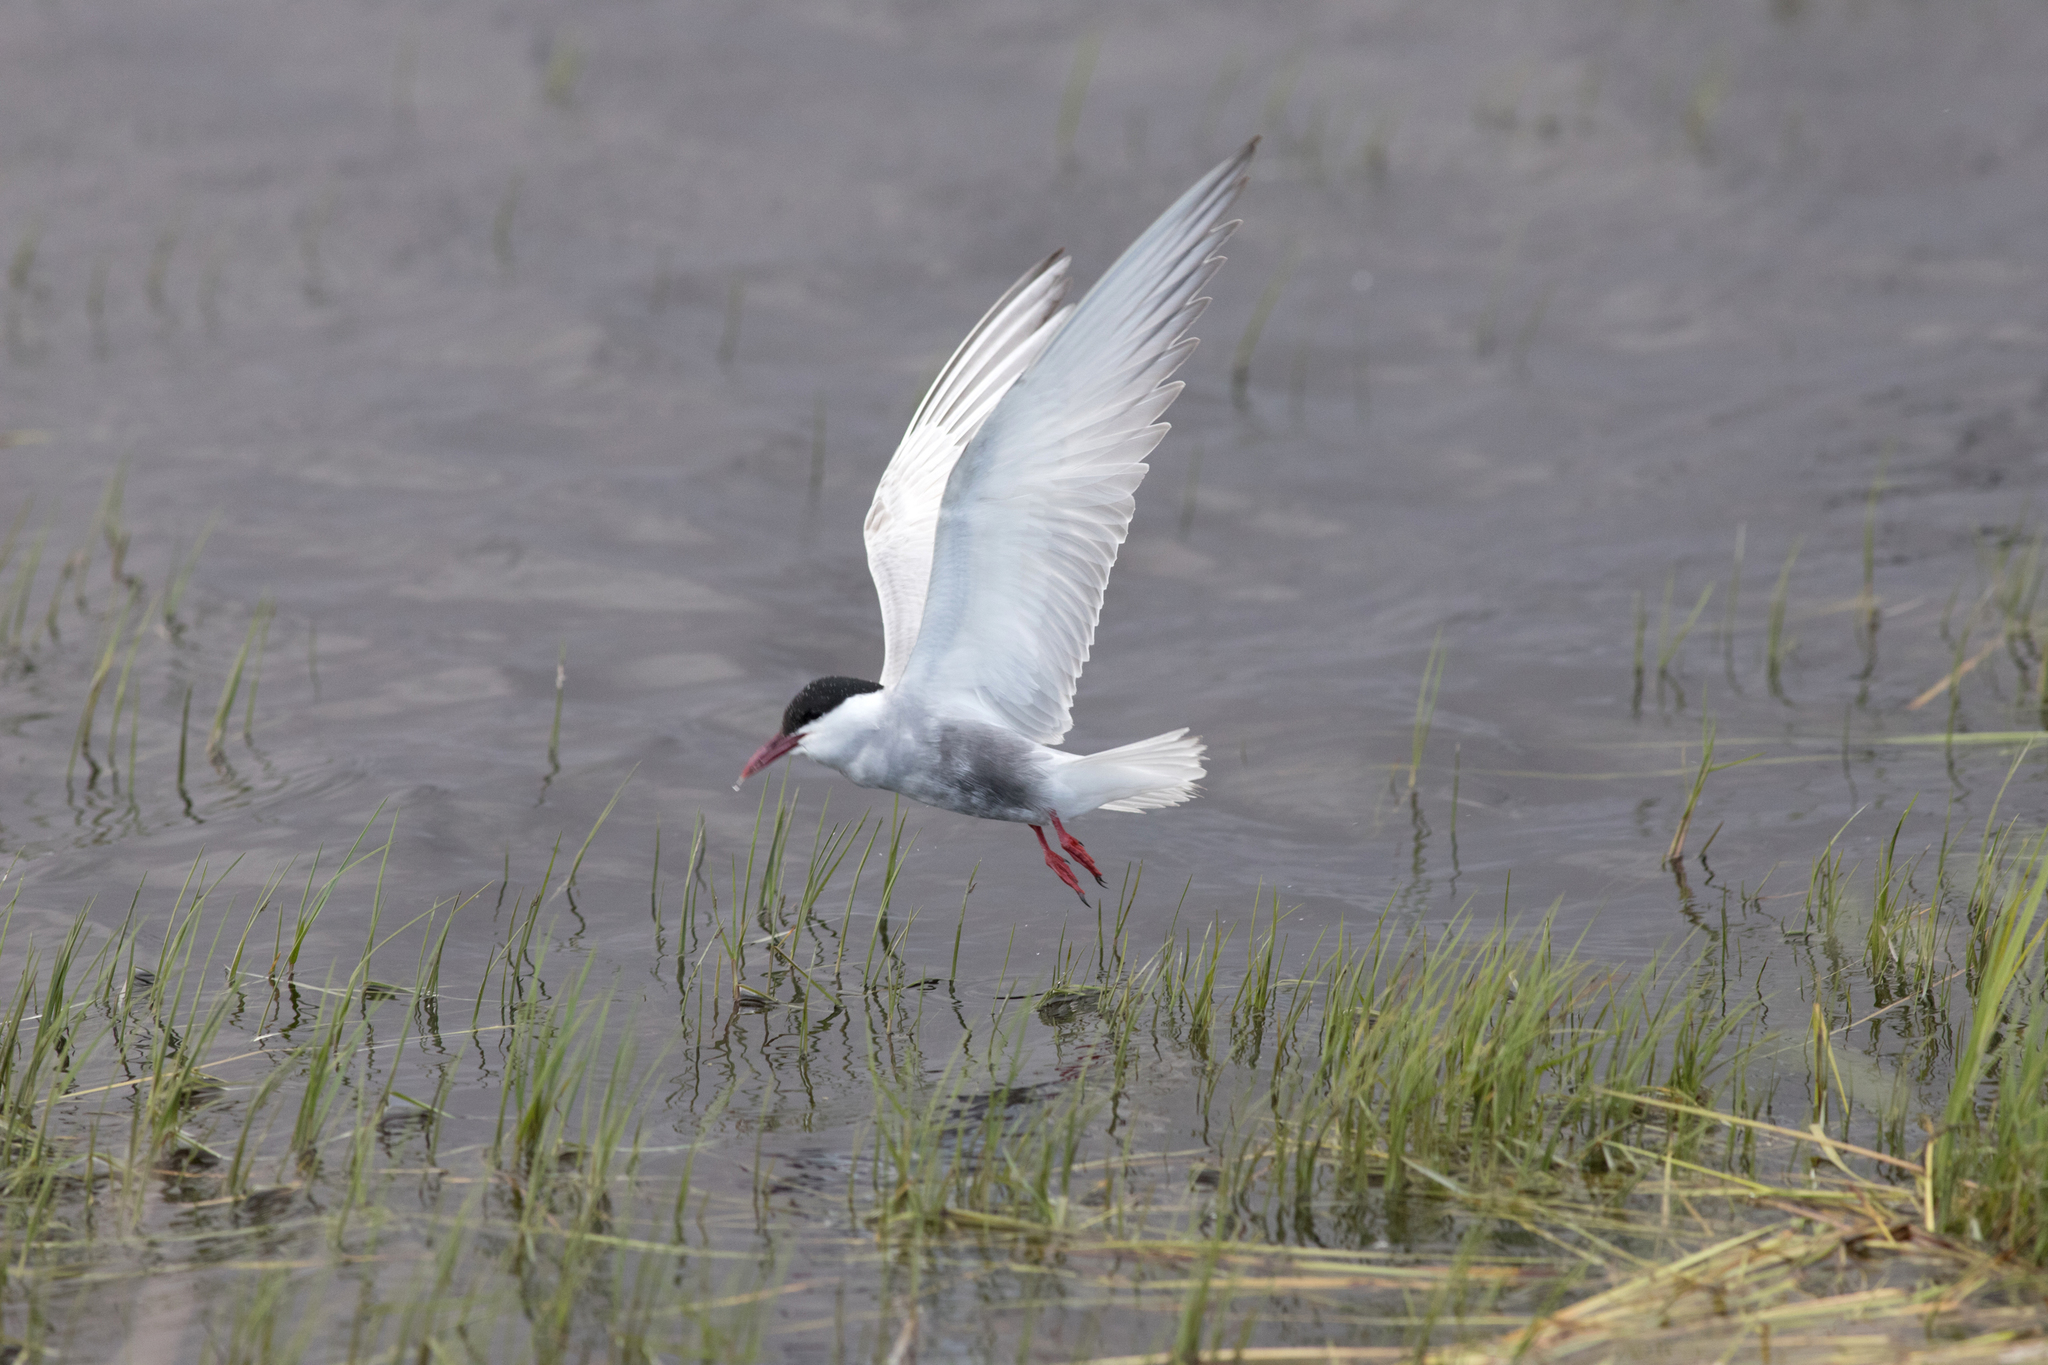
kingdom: Animalia
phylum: Chordata
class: Aves
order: Charadriiformes
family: Laridae
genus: Chlidonias
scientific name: Chlidonias hybrida
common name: Whiskered tern
